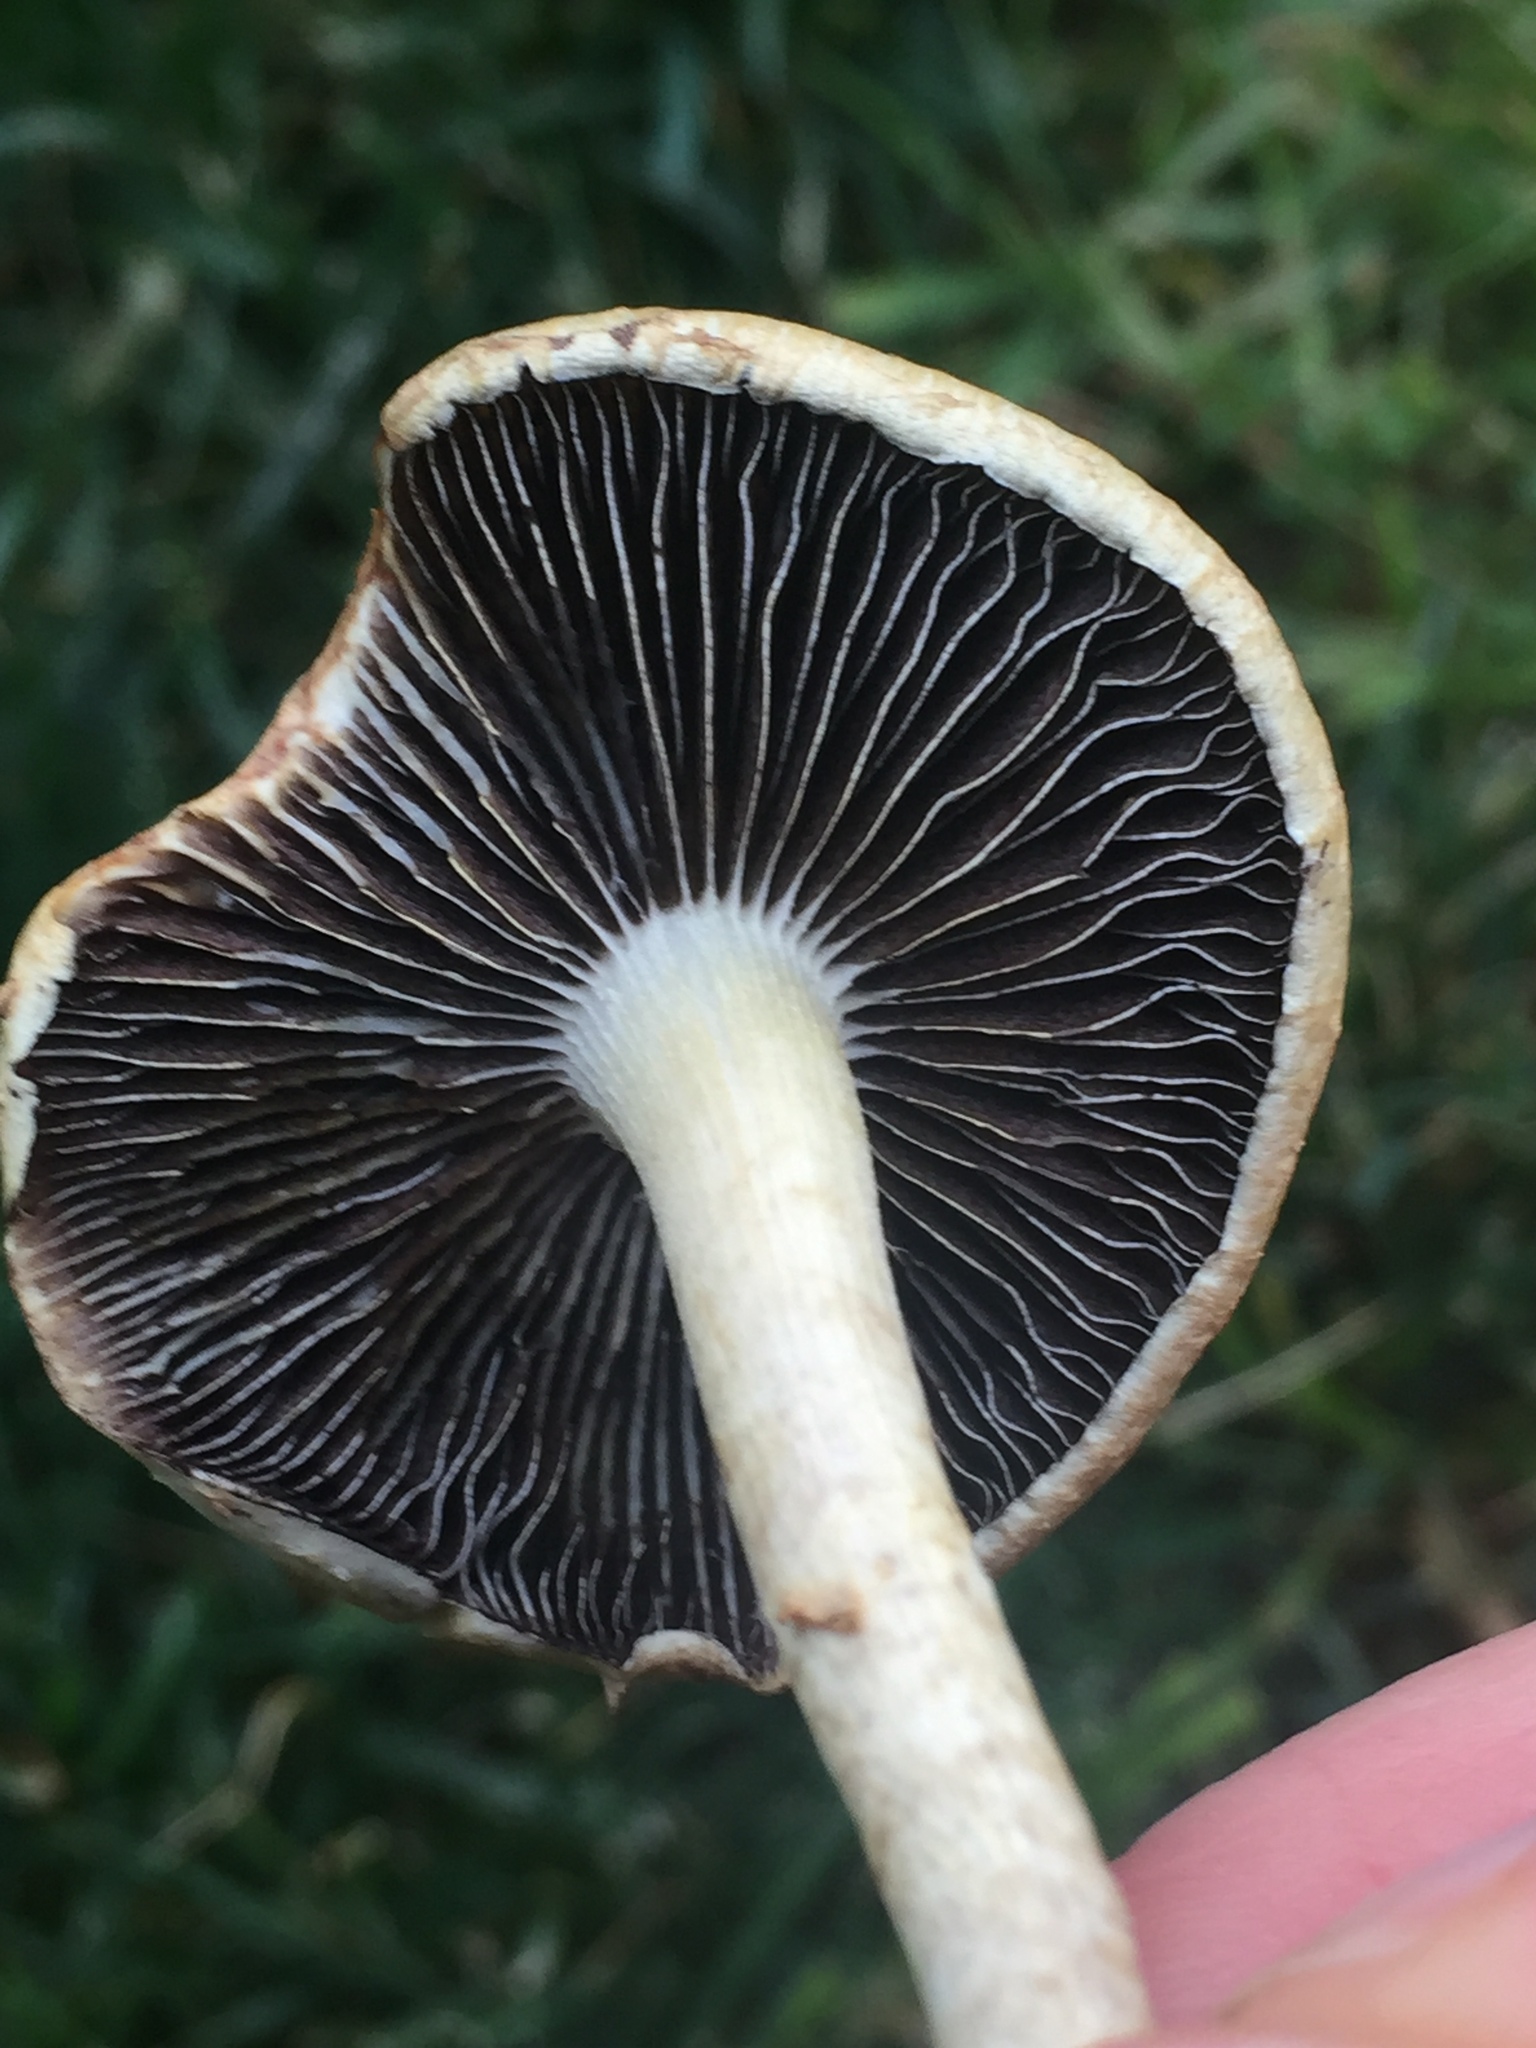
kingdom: Fungi
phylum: Basidiomycota
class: Agaricomycetes
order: Agaricales
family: Strophariaceae
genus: Leratiomyces
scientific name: Leratiomyces percevalii
